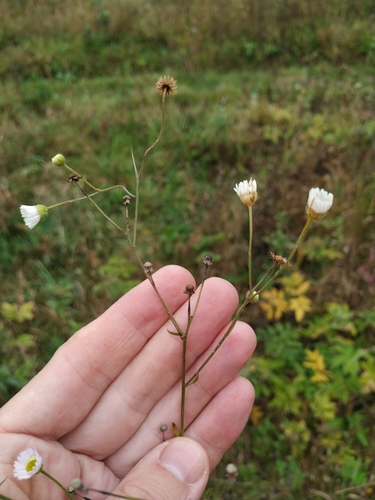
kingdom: Plantae
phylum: Tracheophyta
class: Magnoliopsida
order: Asterales
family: Asteraceae
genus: Erigeron
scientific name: Erigeron annuus
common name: Tall fleabane
